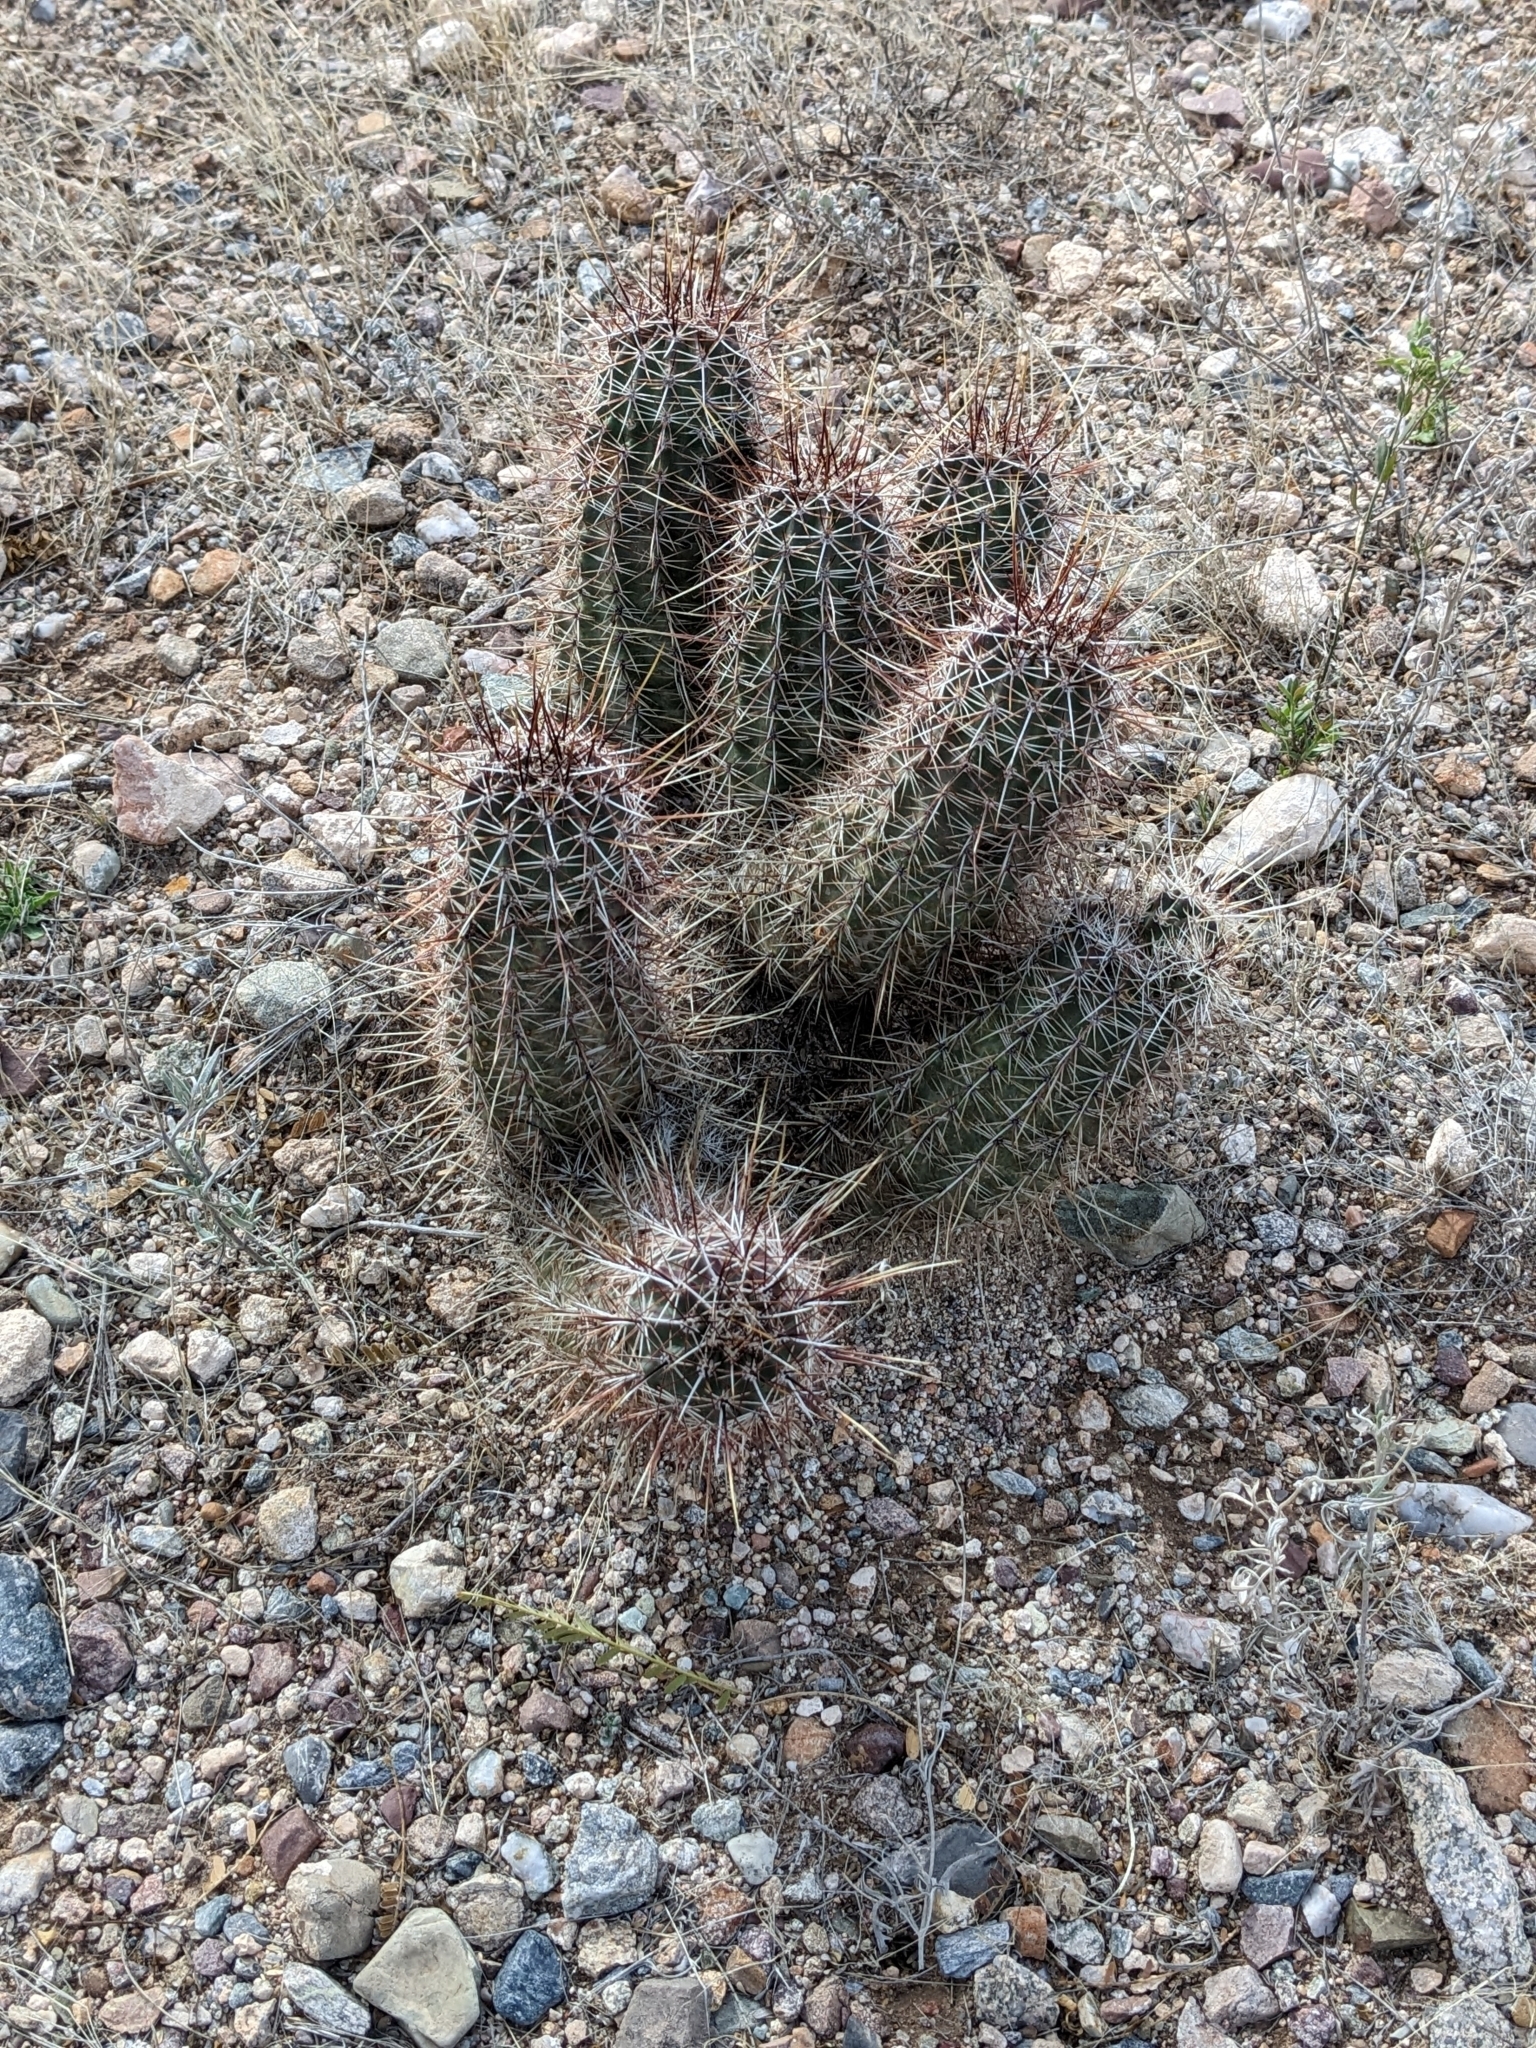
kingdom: Plantae
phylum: Tracheophyta
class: Magnoliopsida
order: Caryophyllales
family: Cactaceae
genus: Echinocereus
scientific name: Echinocereus fasciculatus
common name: Bundle hedgehog
